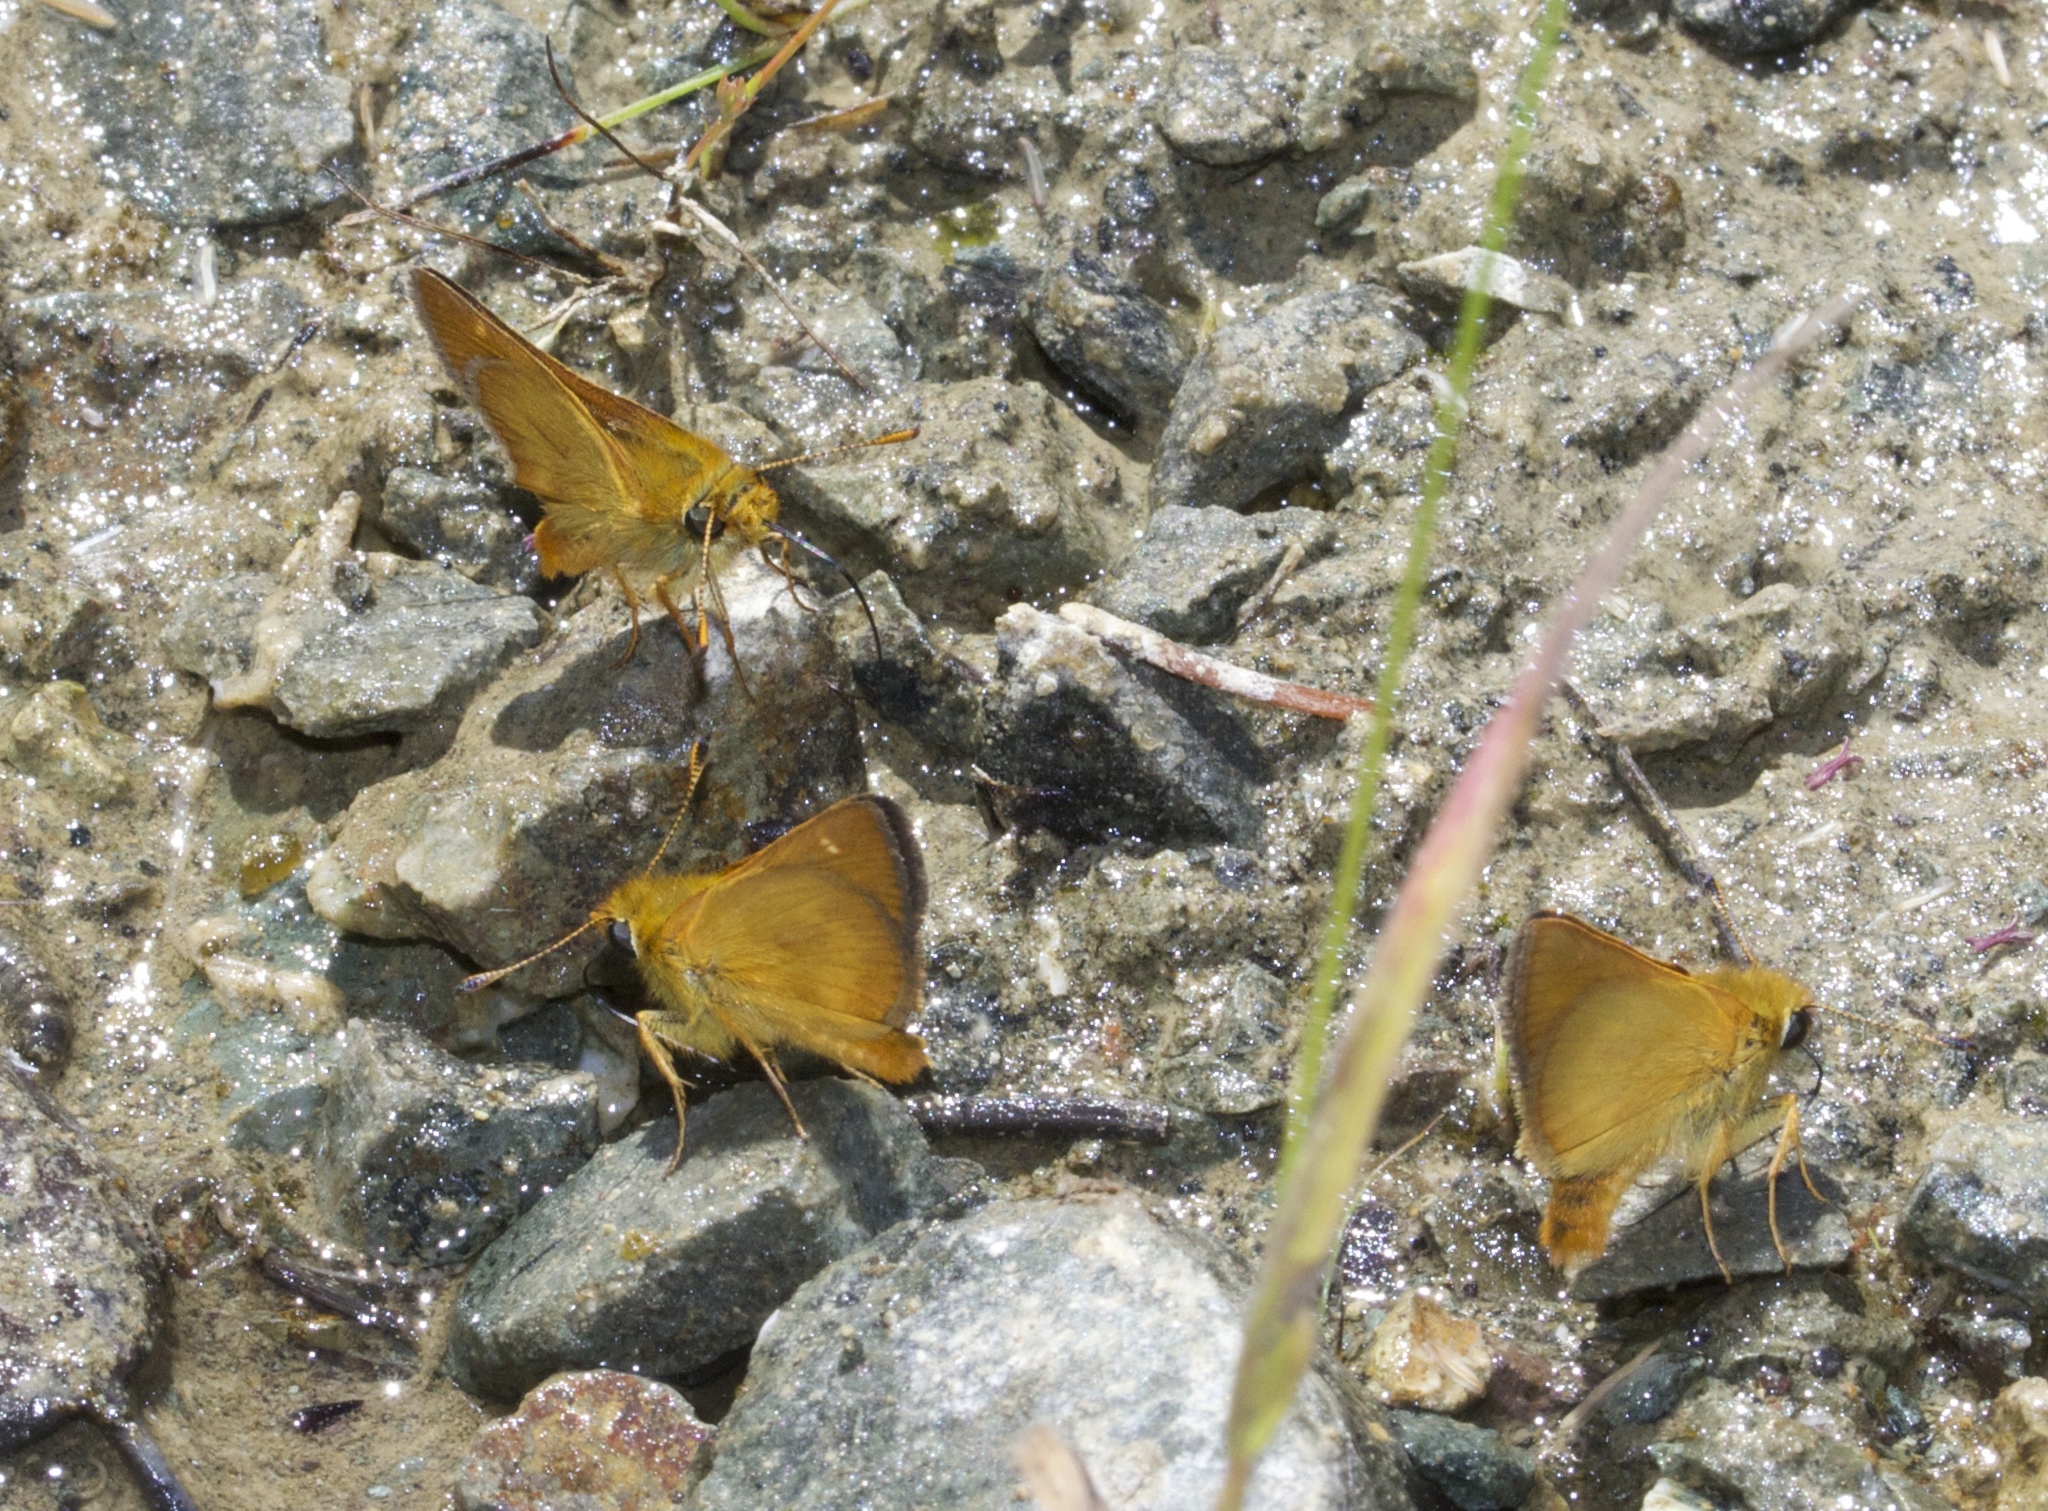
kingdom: Animalia
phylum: Arthropoda
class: Insecta
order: Lepidoptera
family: Hesperiidae
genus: Ochlodes
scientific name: Ochlodes agricola
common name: Rural skipper
